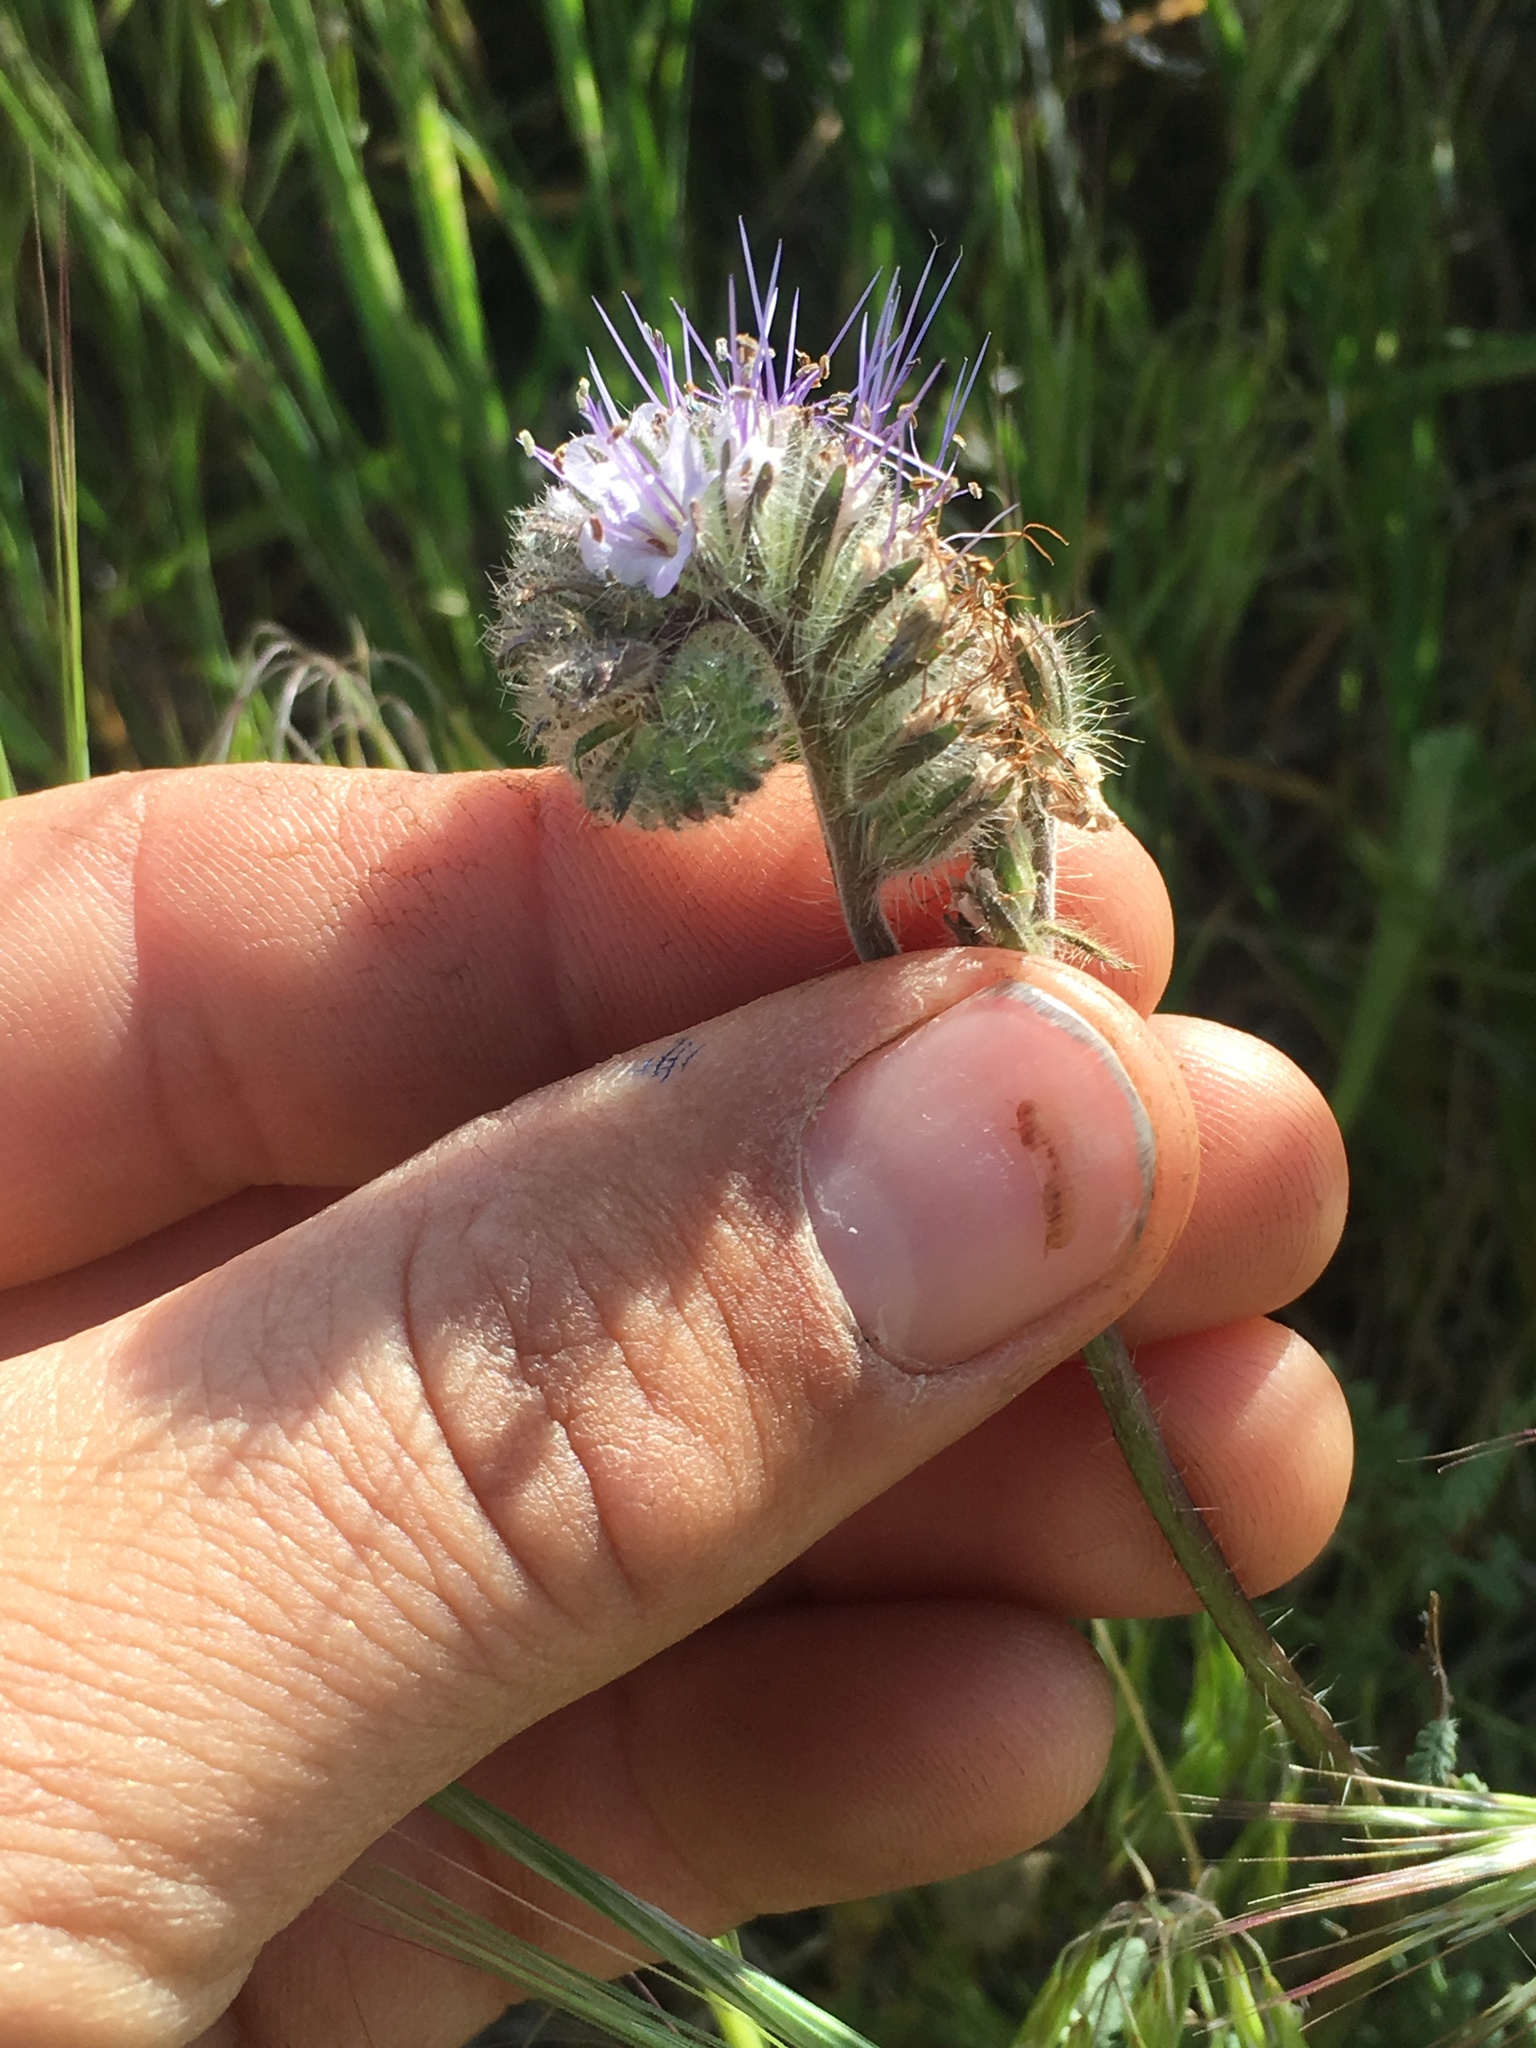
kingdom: Plantae
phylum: Tracheophyta
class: Magnoliopsida
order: Boraginales
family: Hydrophyllaceae
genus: Phacelia
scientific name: Phacelia tanacetifolia
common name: Phacelia
